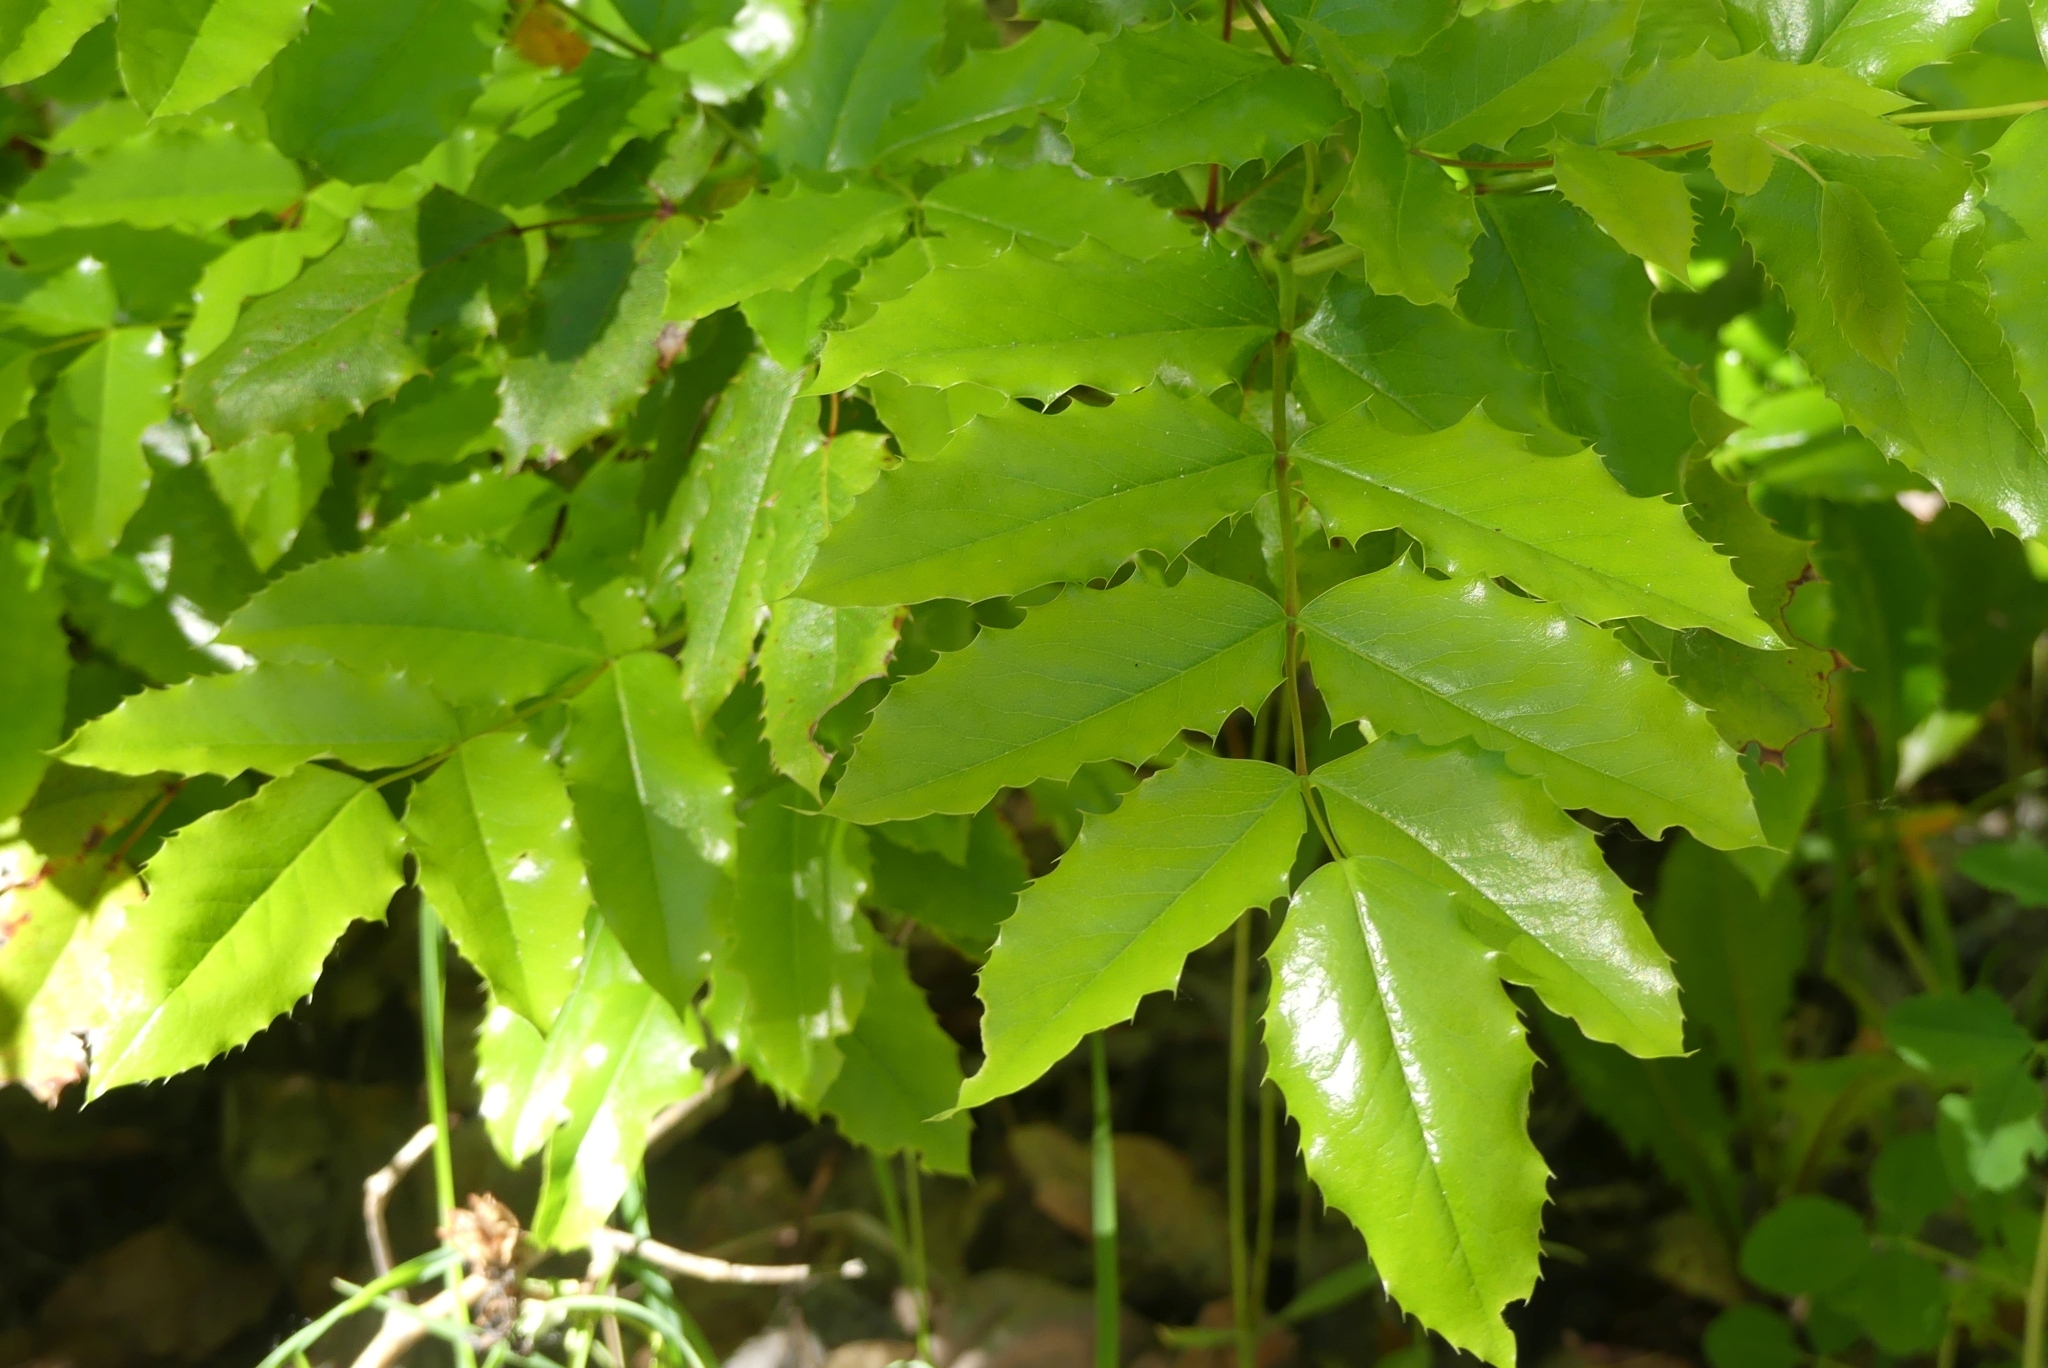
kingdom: Plantae
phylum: Tracheophyta
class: Magnoliopsida
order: Ranunculales
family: Berberidaceae
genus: Mahonia
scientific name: Mahonia aquifolium
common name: Oregon-grape
